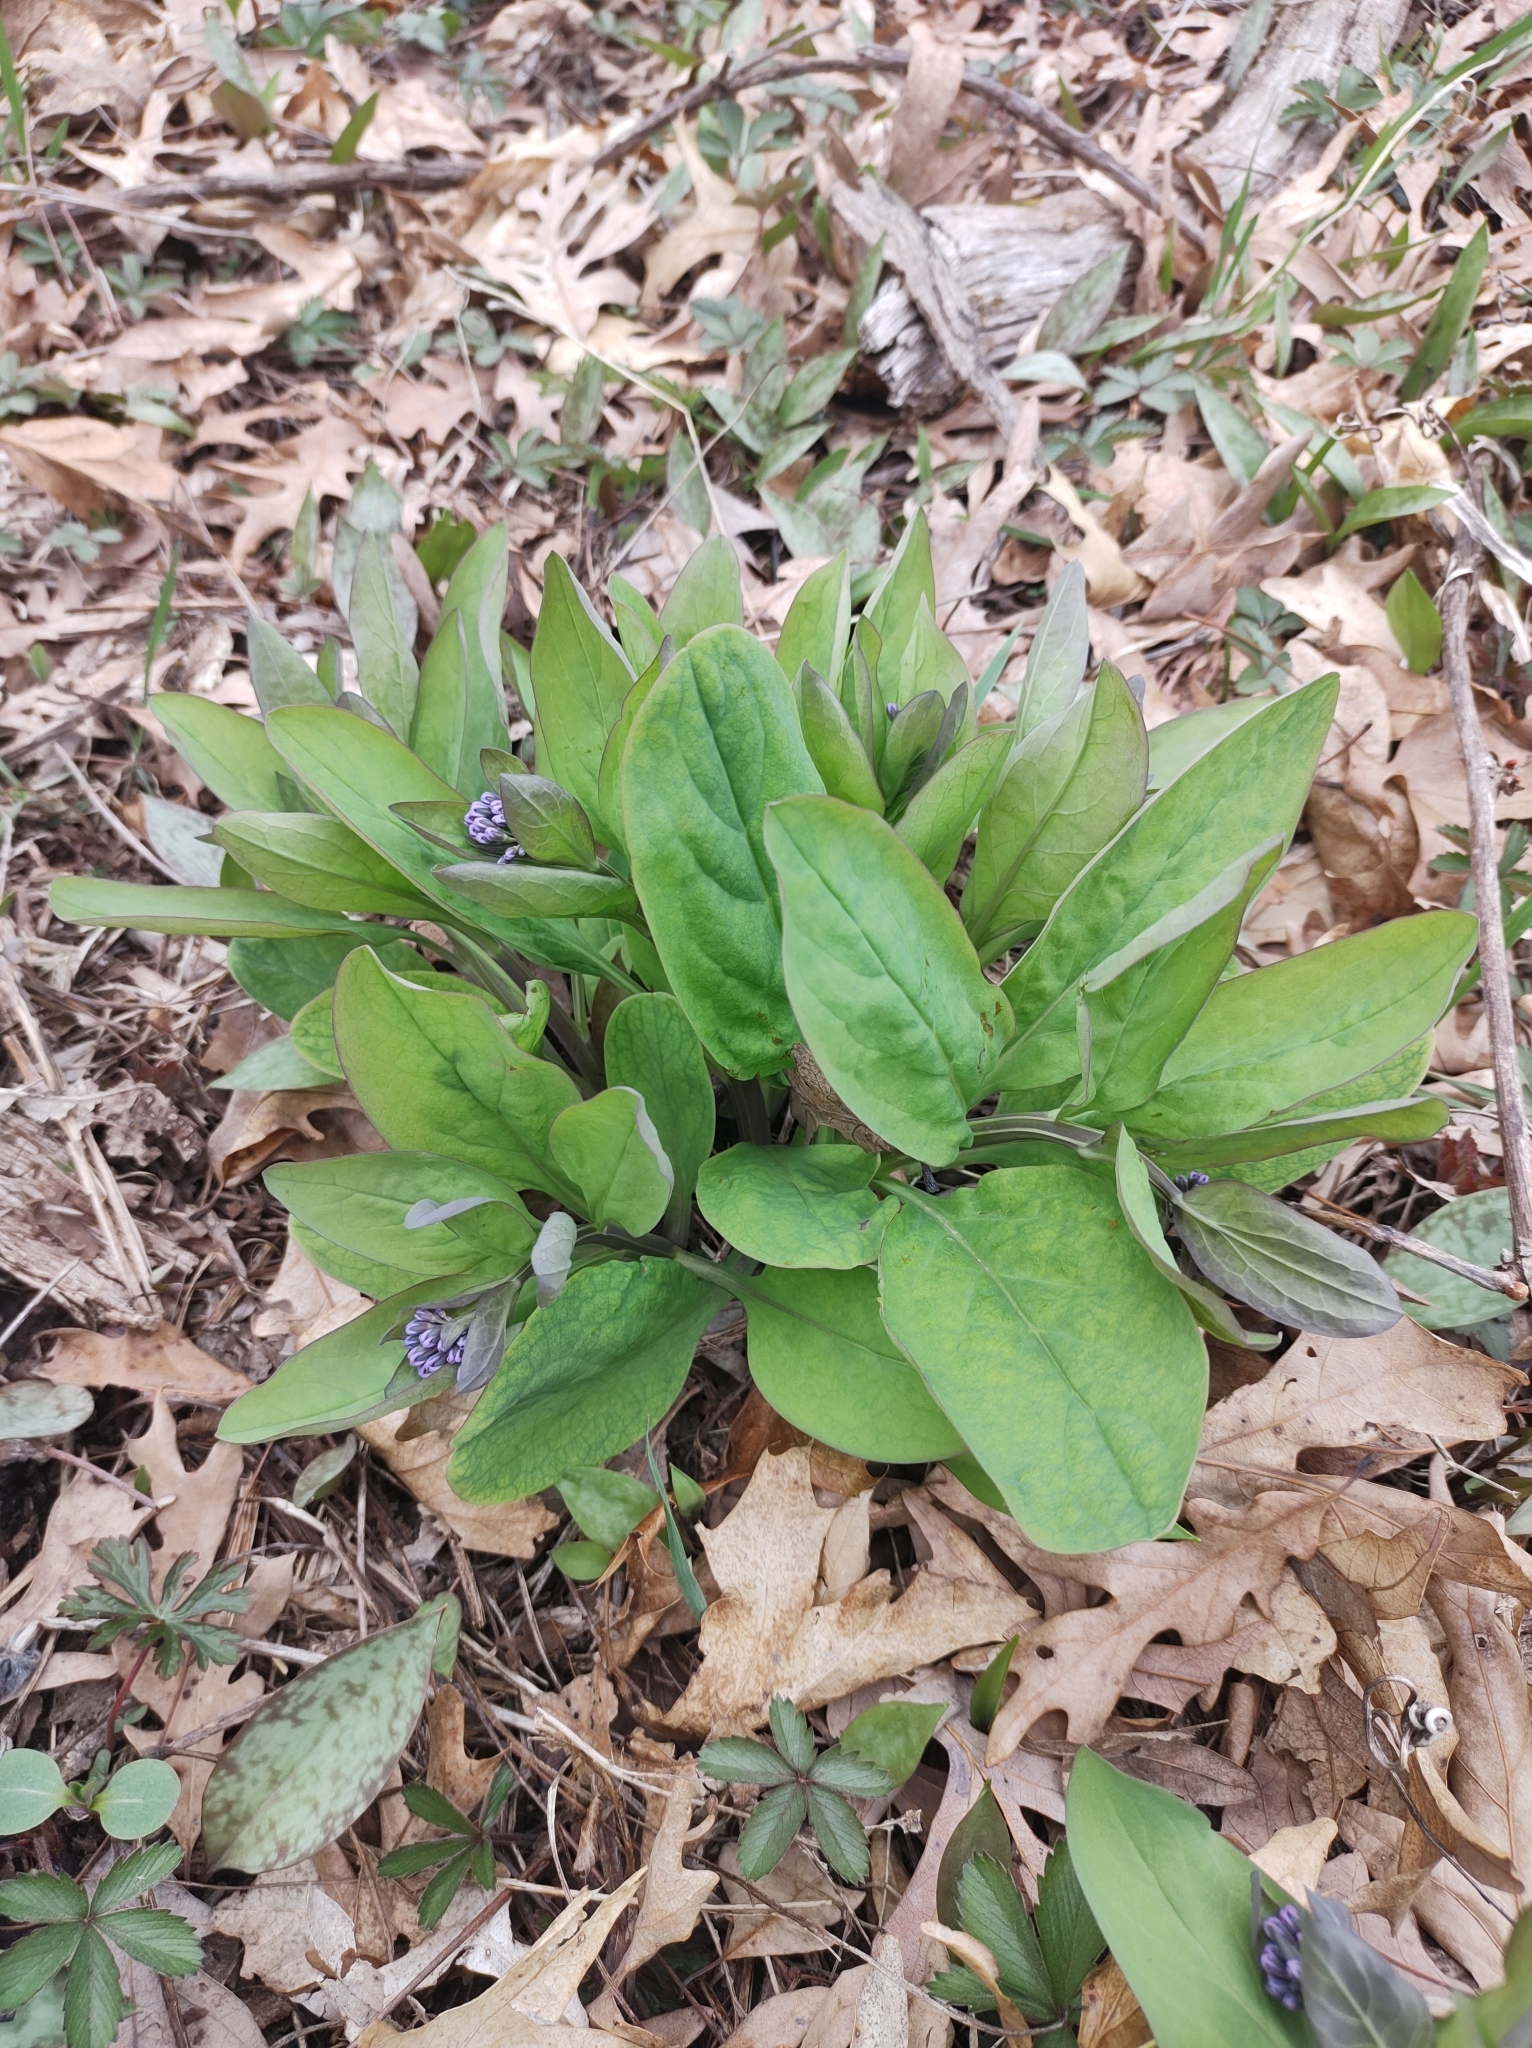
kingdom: Plantae
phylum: Tracheophyta
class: Magnoliopsida
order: Boraginales
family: Boraginaceae
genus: Mertensia
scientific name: Mertensia virginica
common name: Virginia bluebells
